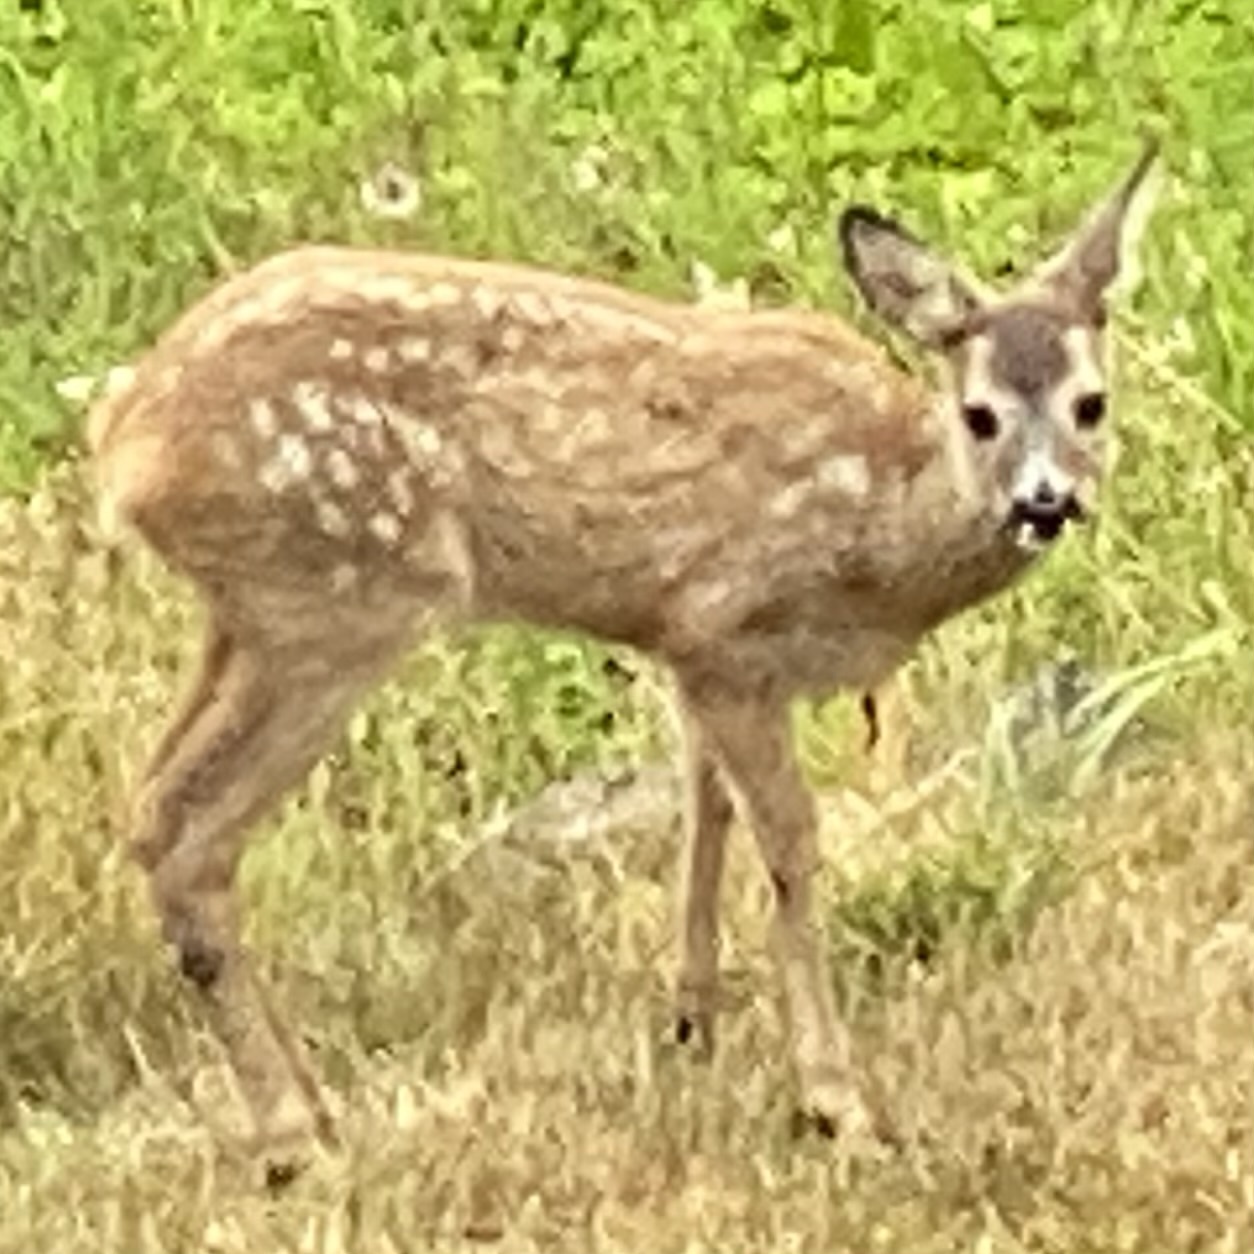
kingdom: Animalia
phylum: Chordata
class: Mammalia
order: Artiodactyla
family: Cervidae
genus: Capreolus
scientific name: Capreolus capreolus
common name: Western roe deer
